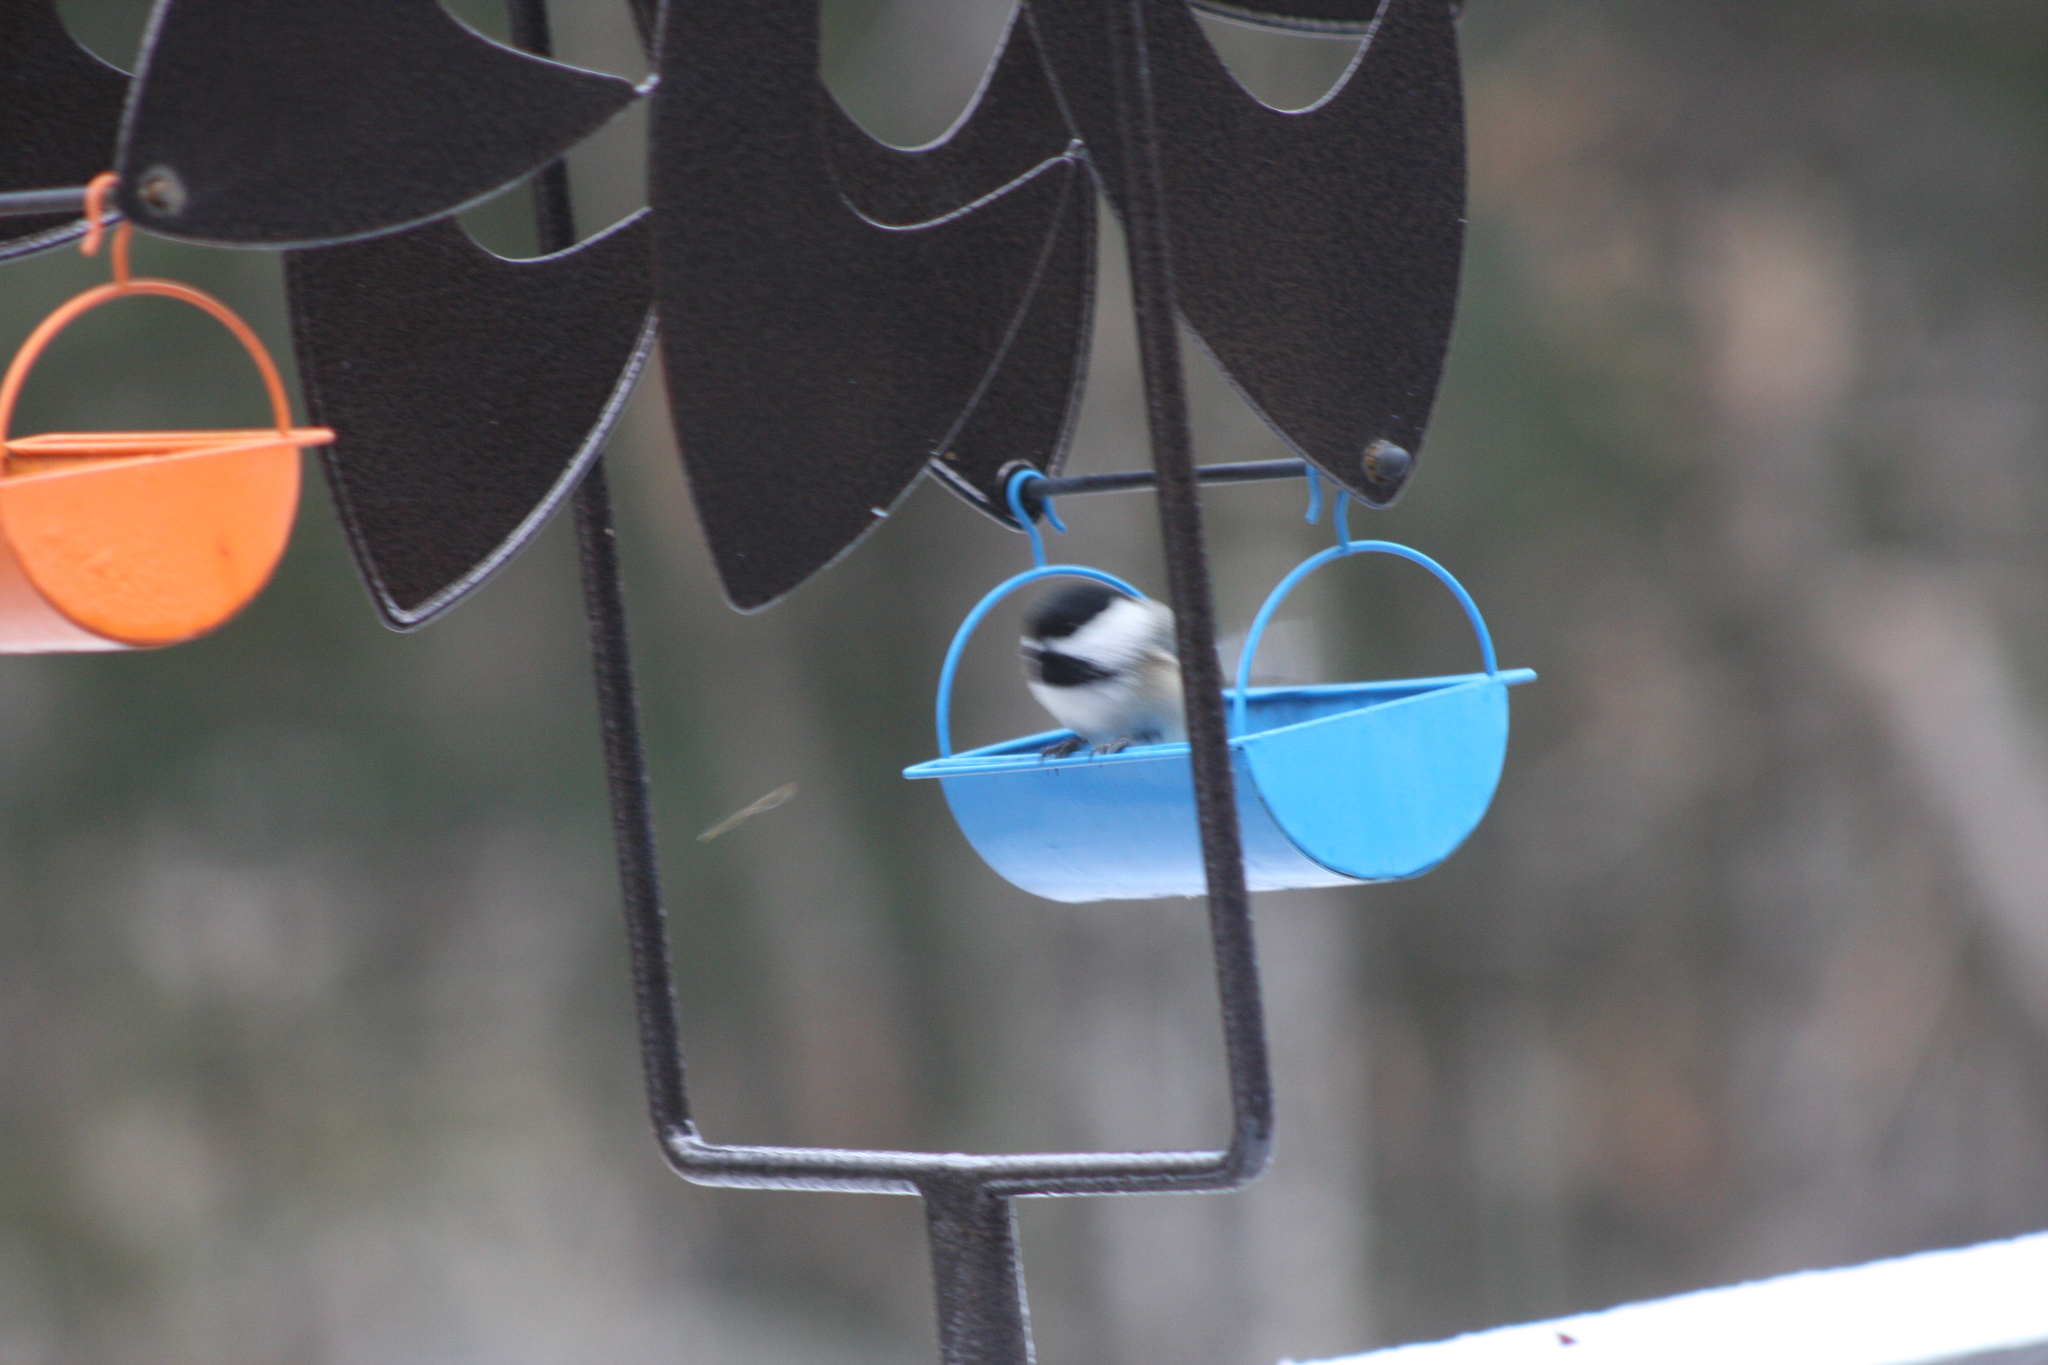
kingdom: Animalia
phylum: Chordata
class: Aves
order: Passeriformes
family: Paridae
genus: Poecile
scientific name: Poecile atricapillus
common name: Black-capped chickadee
